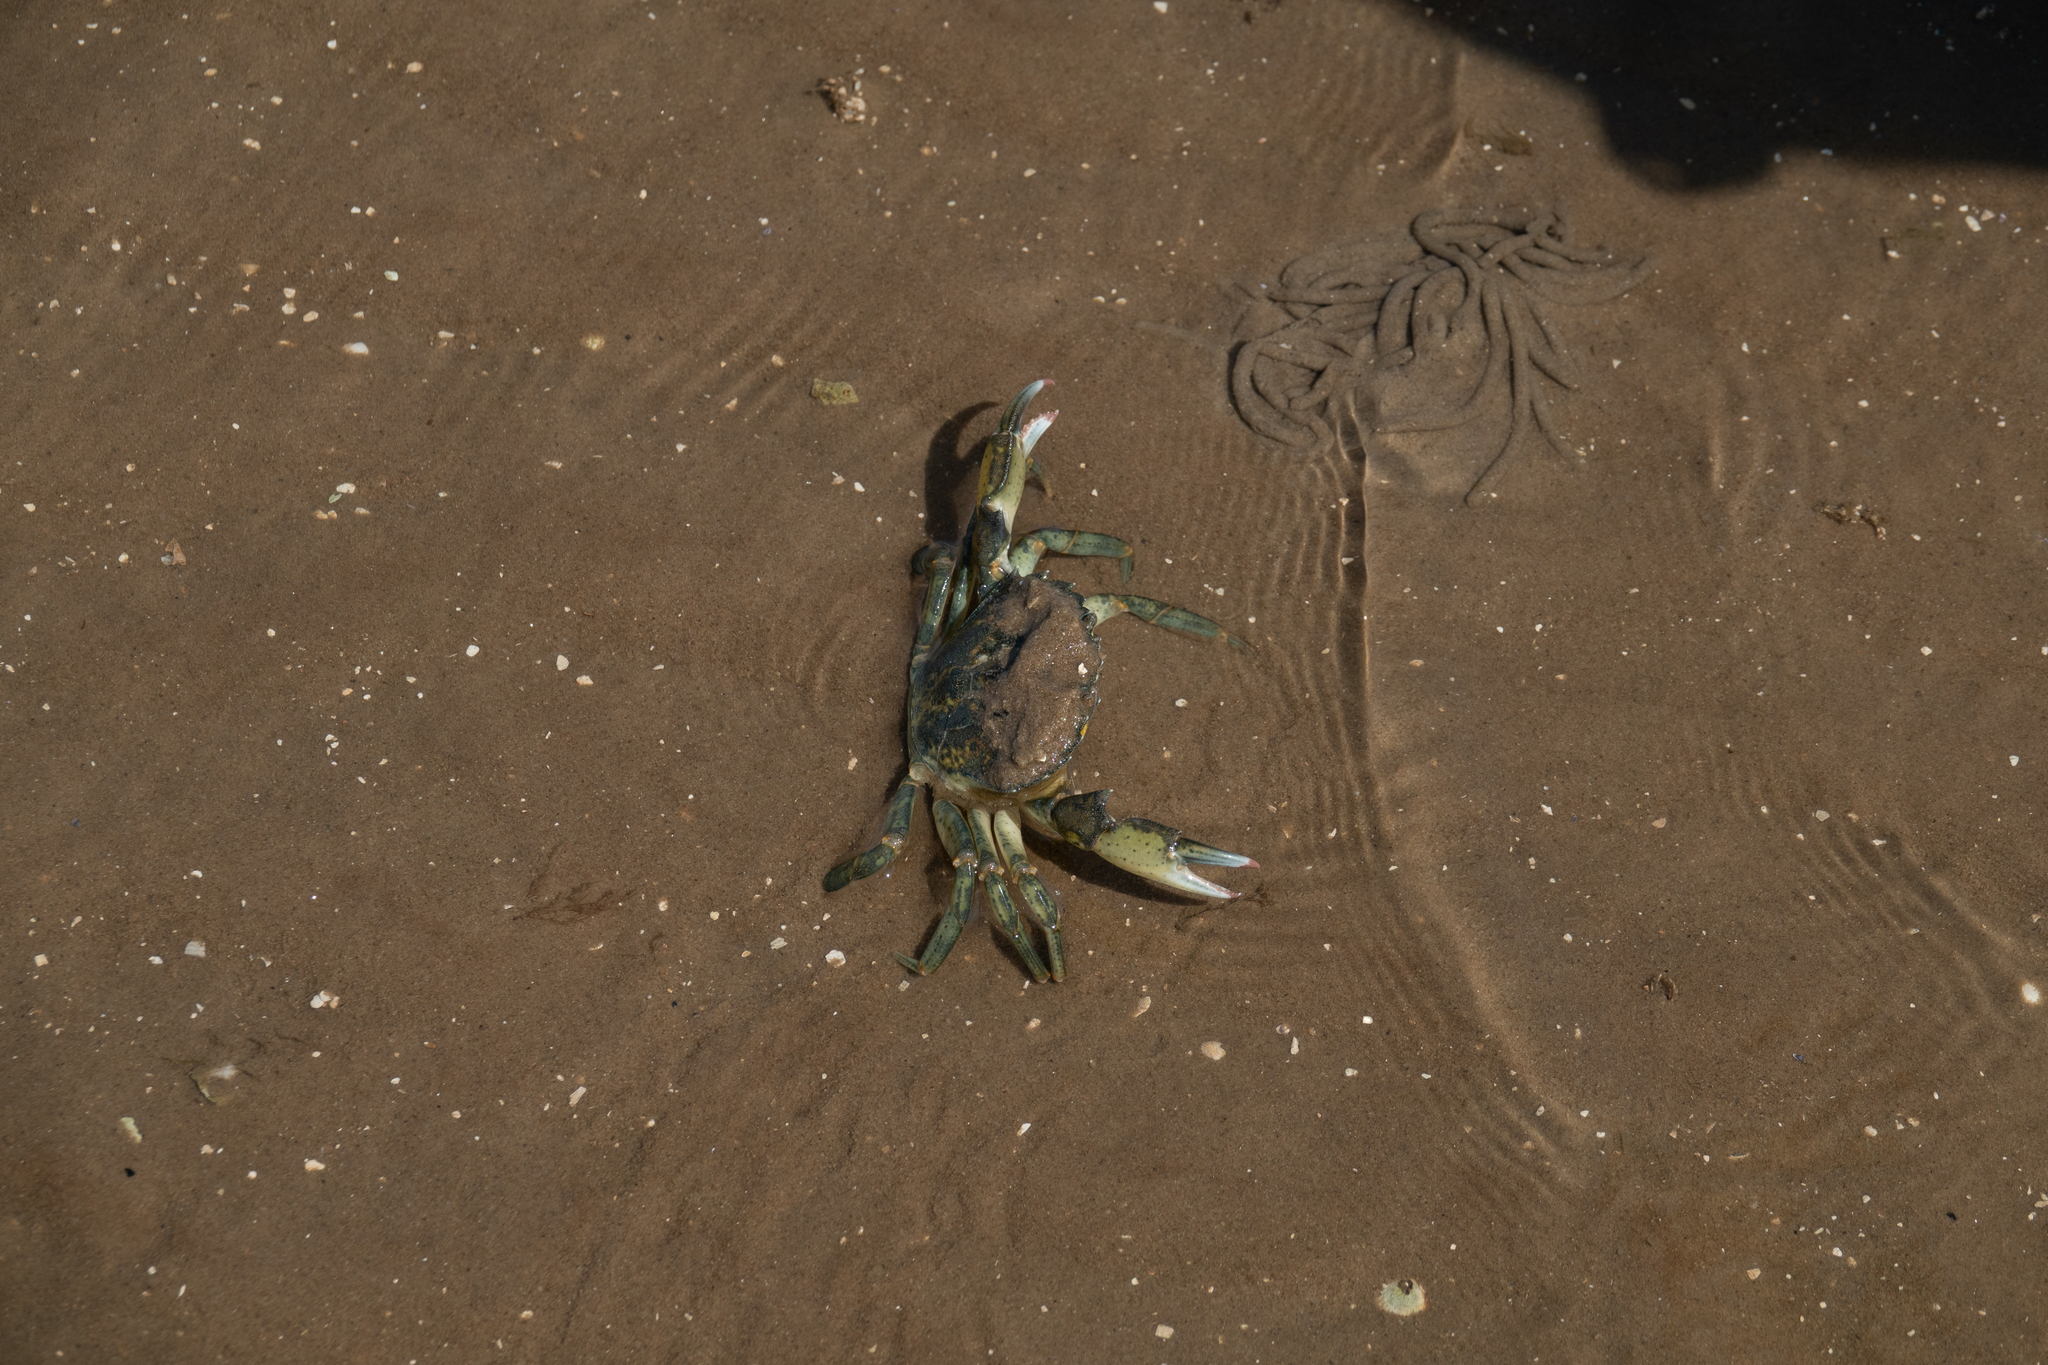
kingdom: Animalia
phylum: Arthropoda
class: Malacostraca
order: Decapoda
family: Carcinidae
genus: Carcinus
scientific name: Carcinus maenas
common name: European green crab
